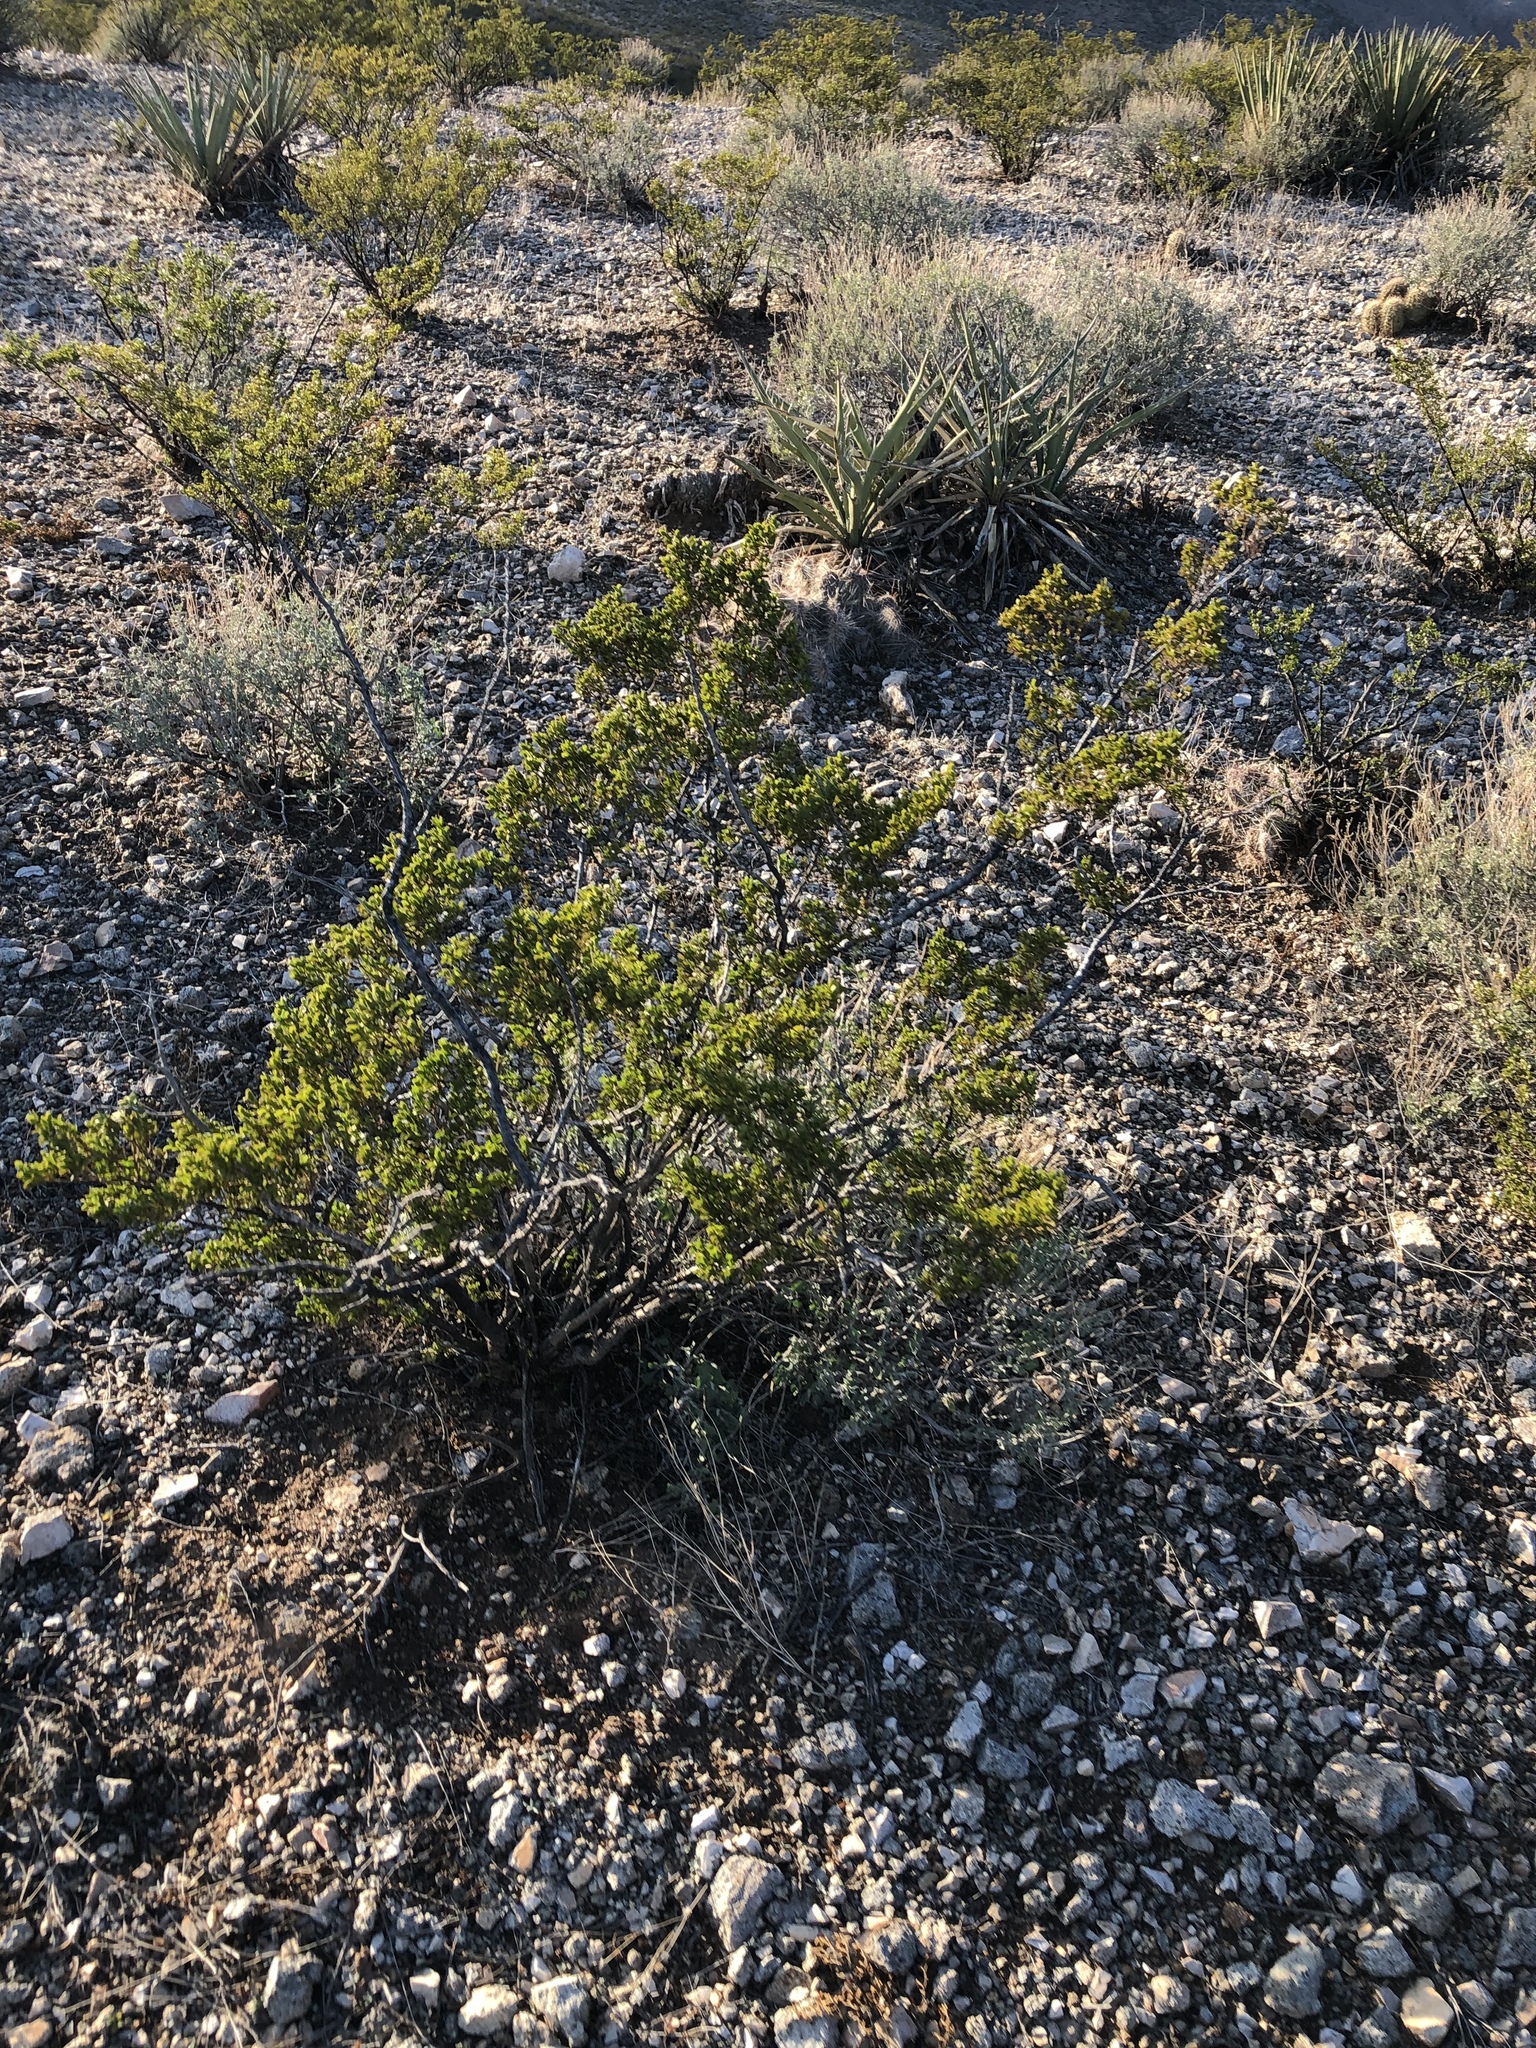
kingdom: Plantae
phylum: Tracheophyta
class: Magnoliopsida
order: Zygophyllales
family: Zygophyllaceae
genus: Larrea
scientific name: Larrea tridentata
